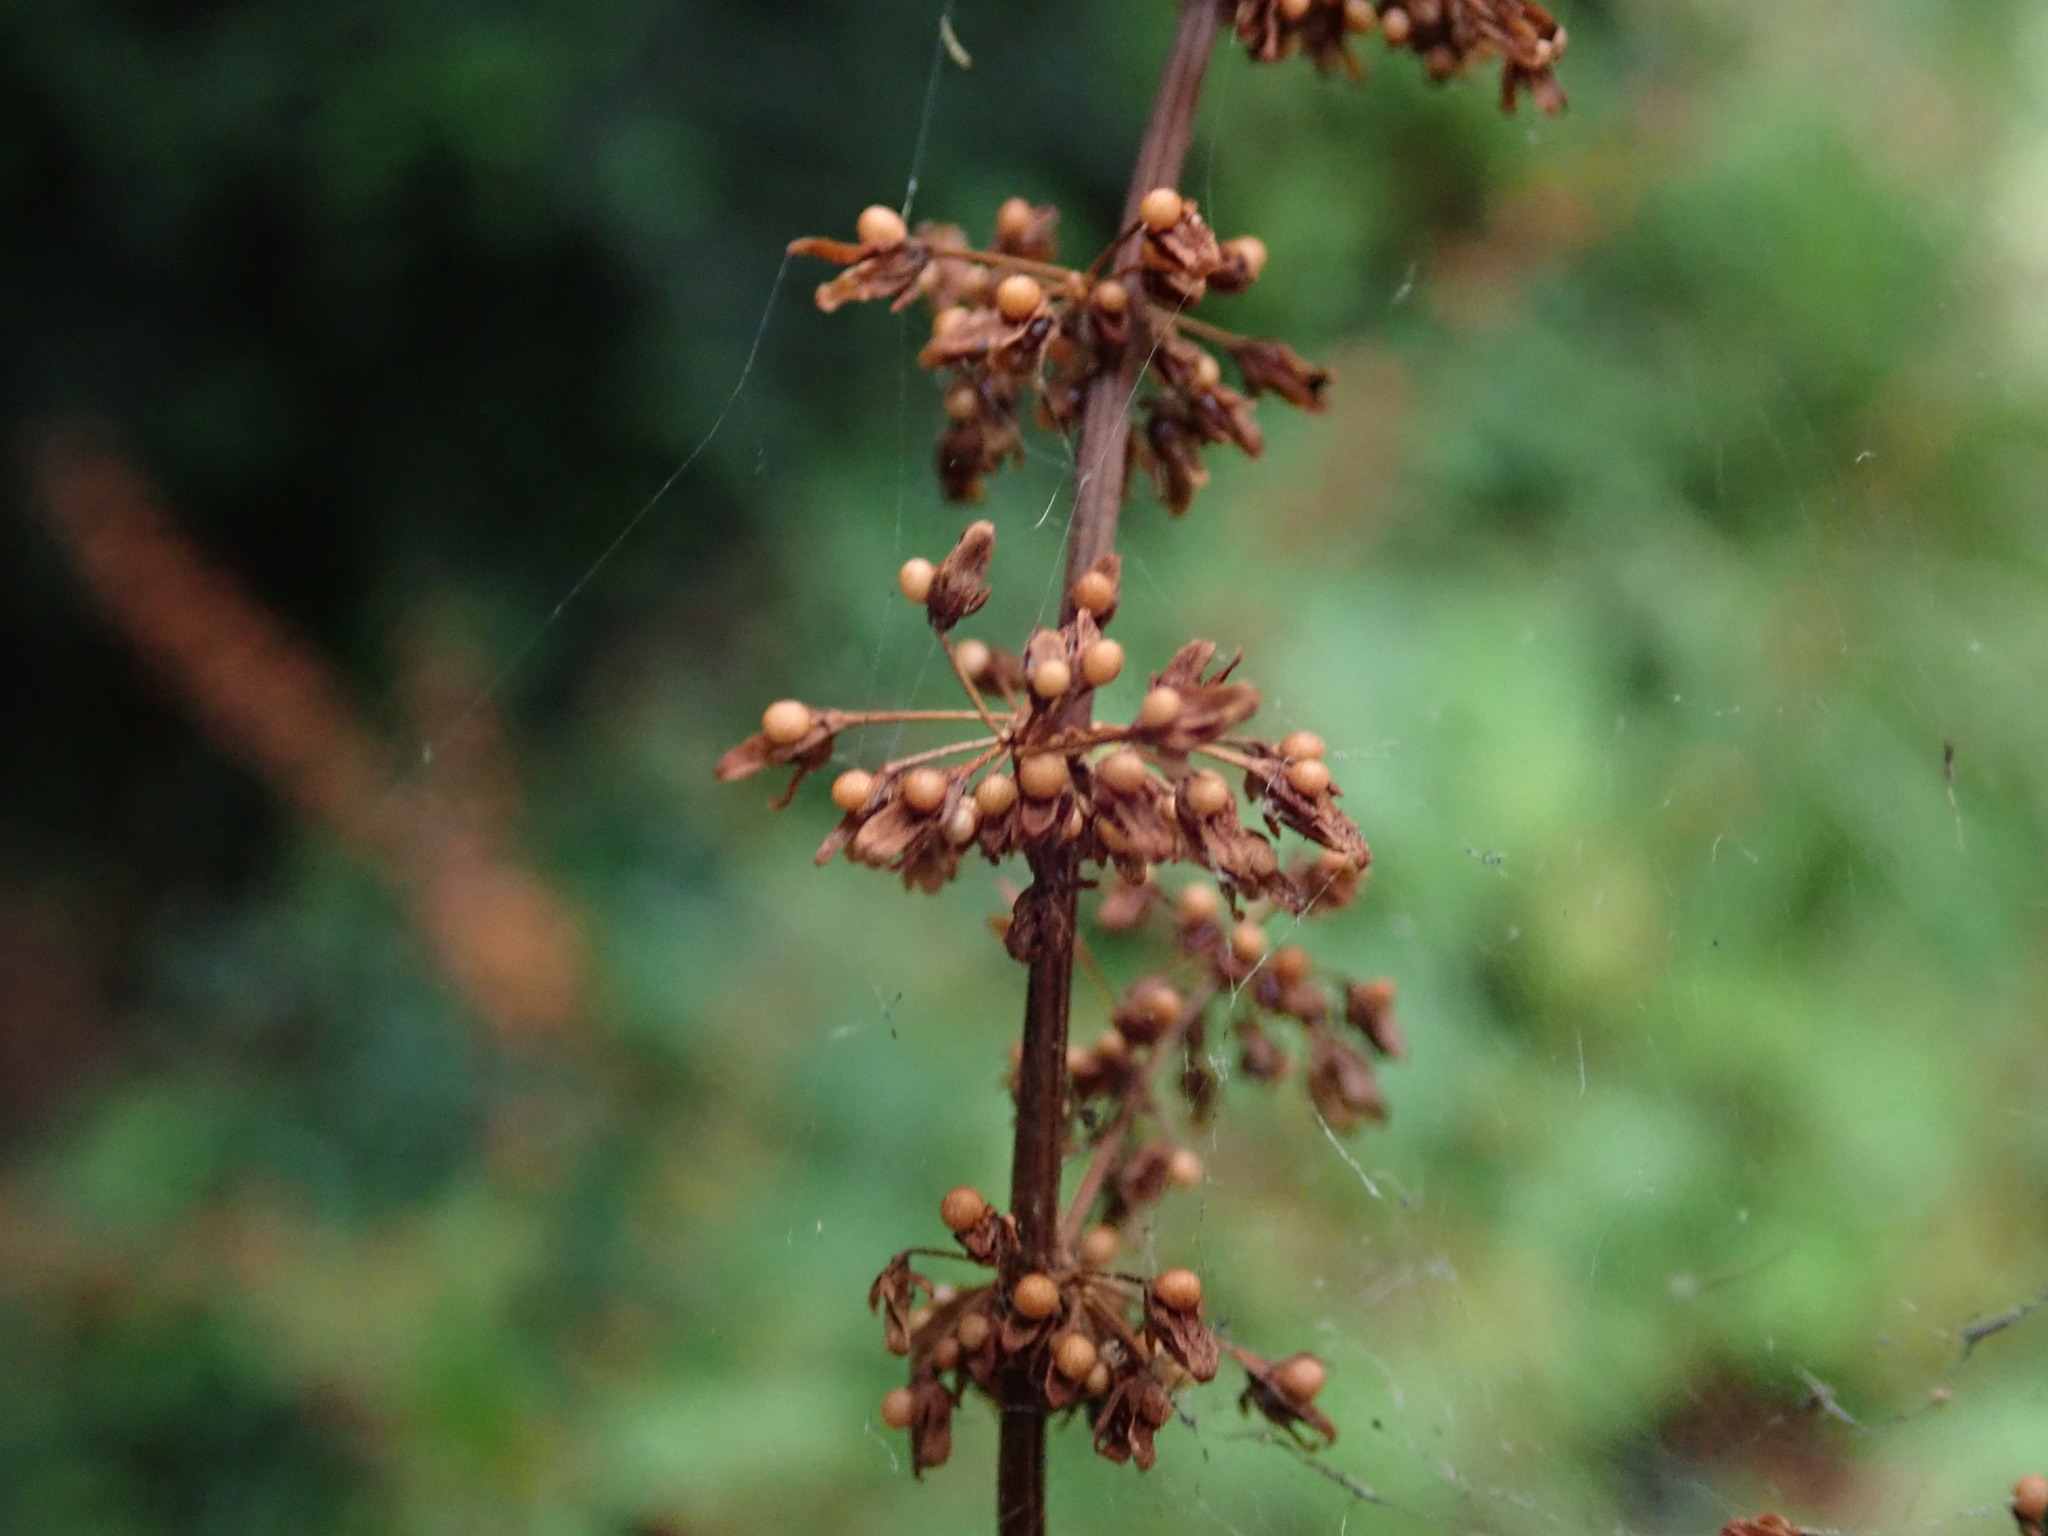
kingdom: Plantae
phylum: Tracheophyta
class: Magnoliopsida
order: Caryophyllales
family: Polygonaceae
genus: Rumex
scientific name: Rumex sanguineus
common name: Wood dock
